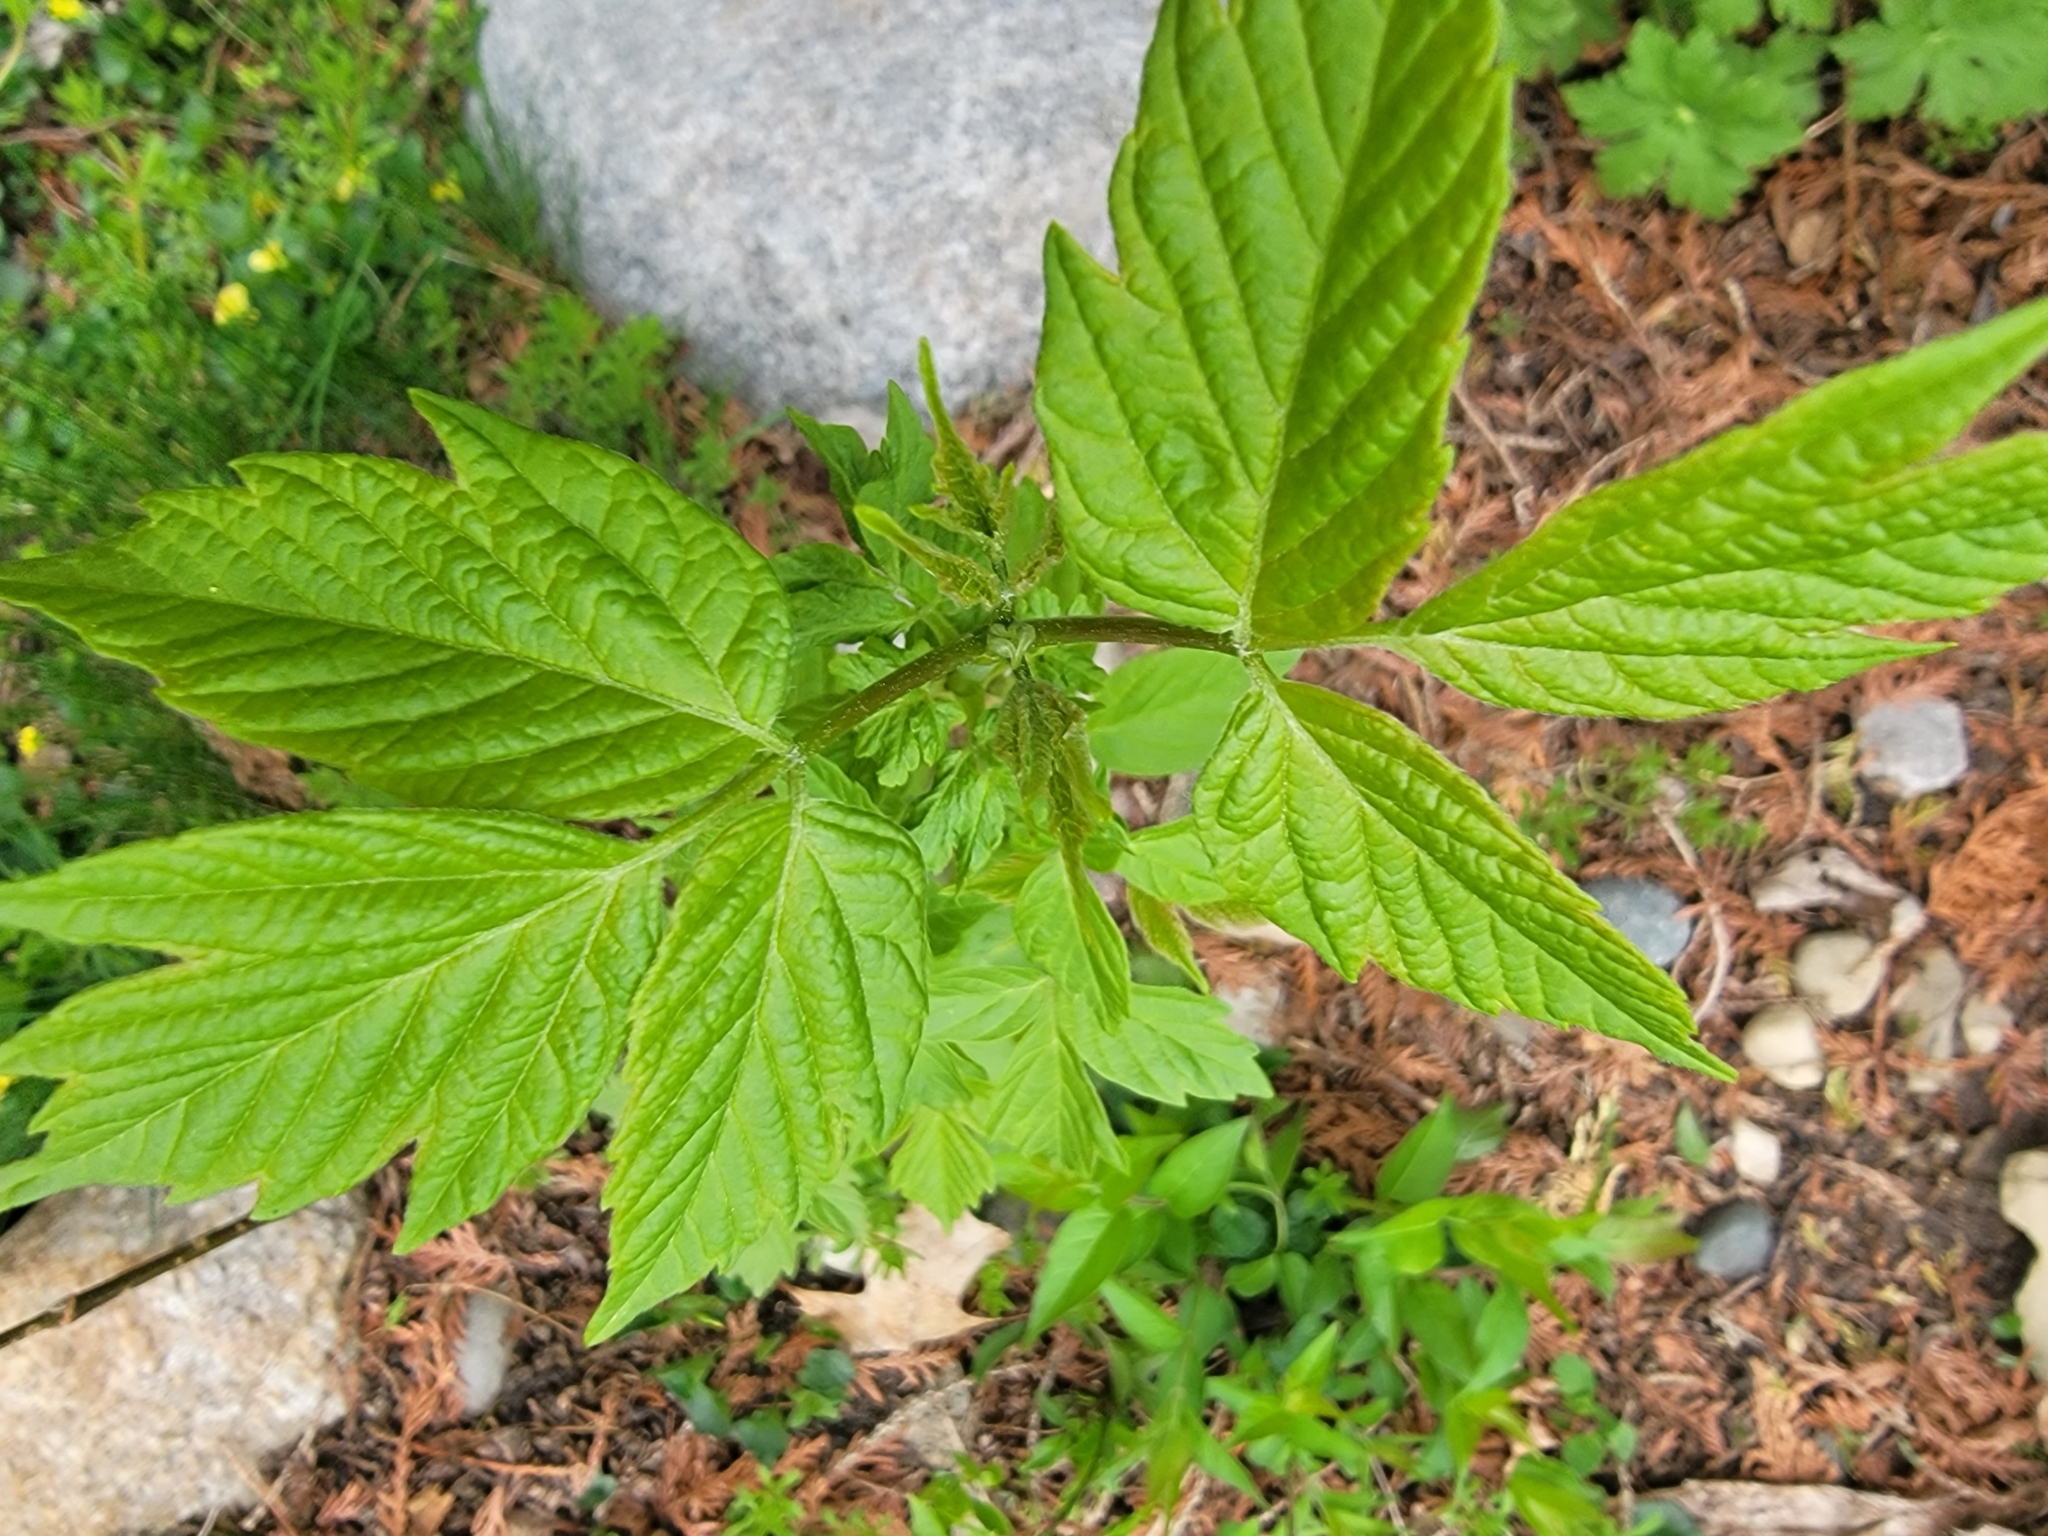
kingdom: Plantae
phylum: Tracheophyta
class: Magnoliopsida
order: Sapindales
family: Sapindaceae
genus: Acer
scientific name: Acer negundo
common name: Ashleaf maple
